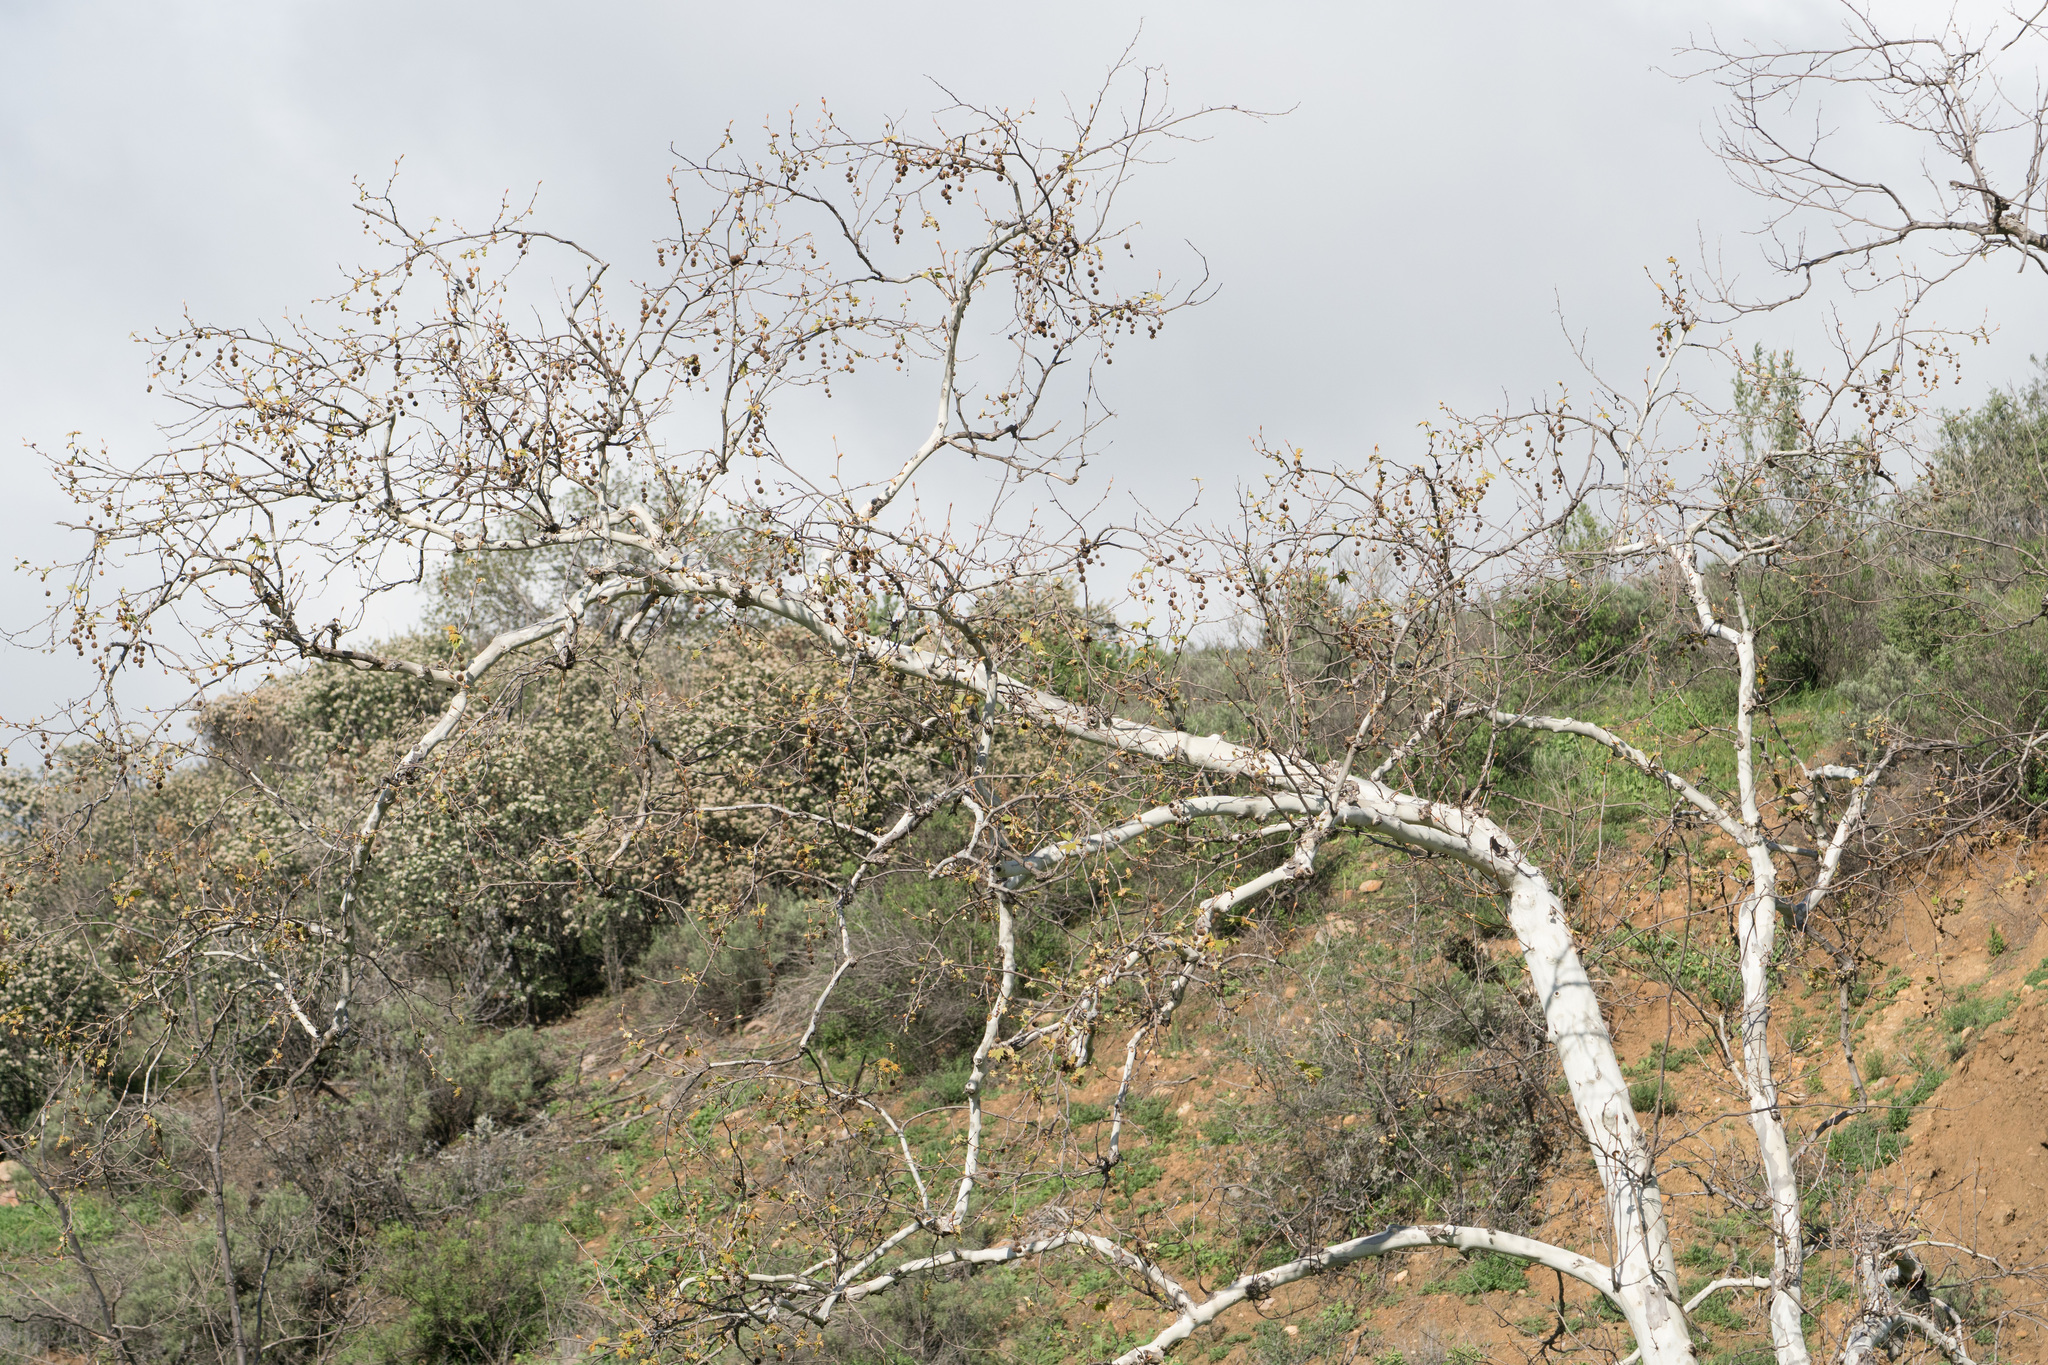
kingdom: Plantae
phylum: Tracheophyta
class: Magnoliopsida
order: Proteales
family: Platanaceae
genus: Platanus
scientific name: Platanus racemosa
